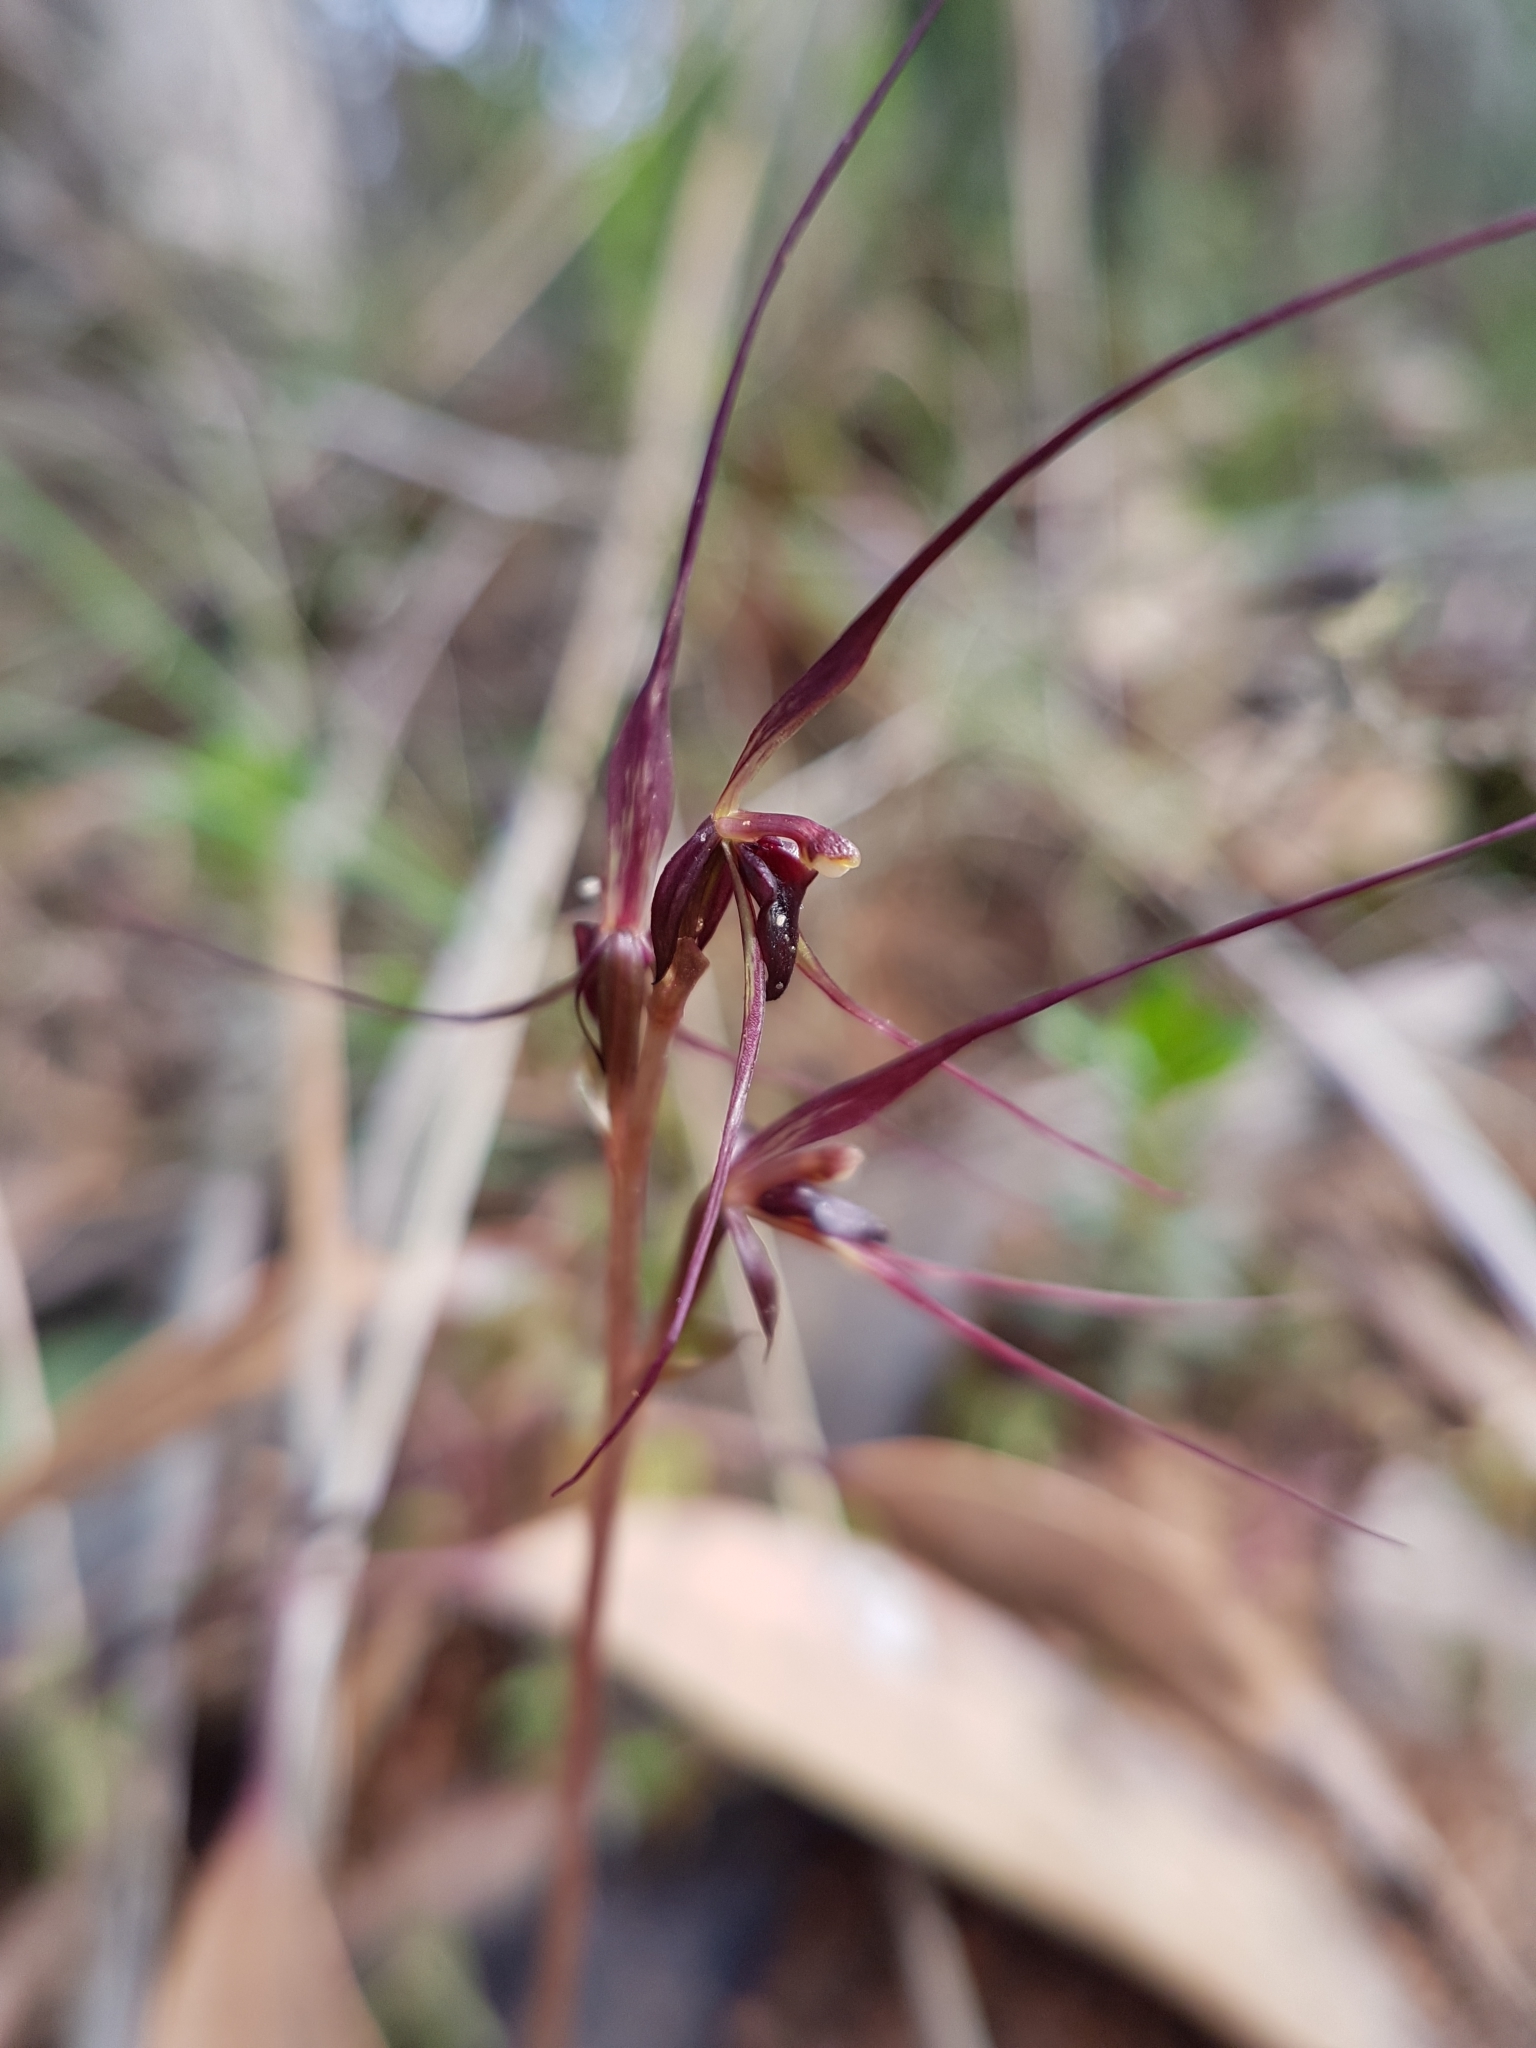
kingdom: Plantae
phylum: Tracheophyta
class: Liliopsida
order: Asparagales
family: Orchidaceae
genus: Acianthus
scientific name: Acianthus caudatus
